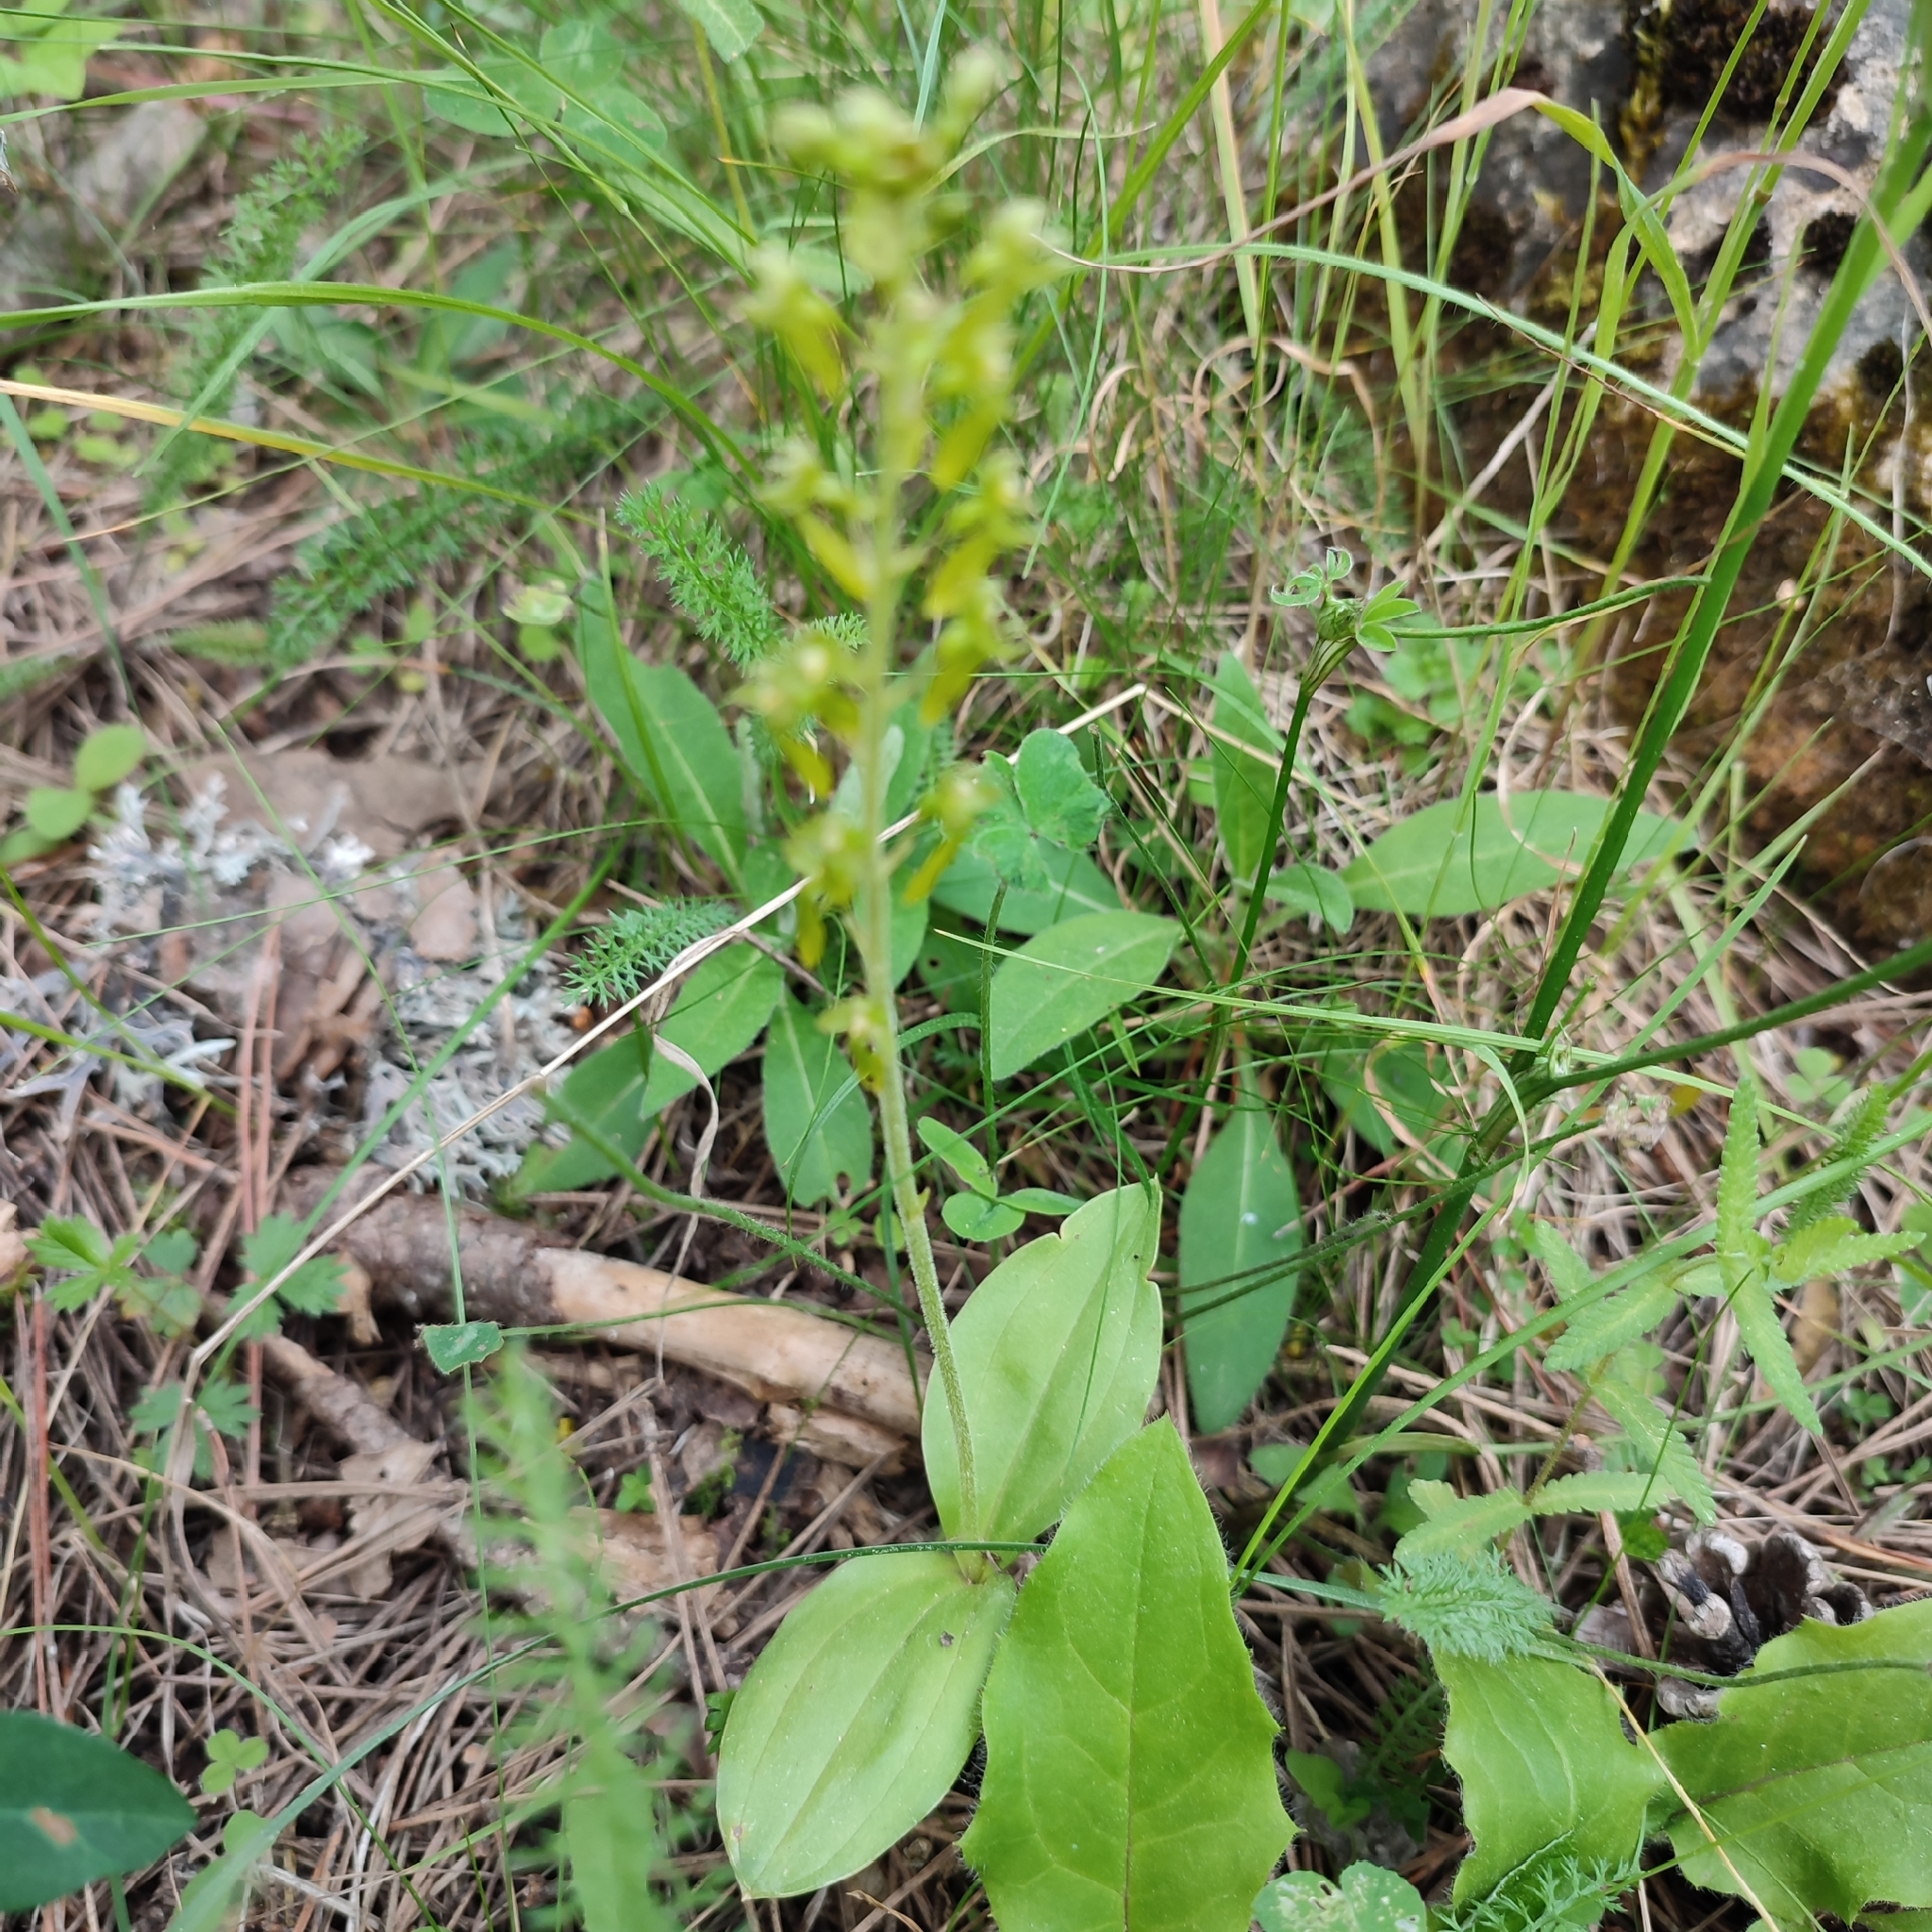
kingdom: Plantae
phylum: Tracheophyta
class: Liliopsida
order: Asparagales
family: Orchidaceae
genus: Neottia
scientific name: Neottia ovata
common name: Common twayblade
